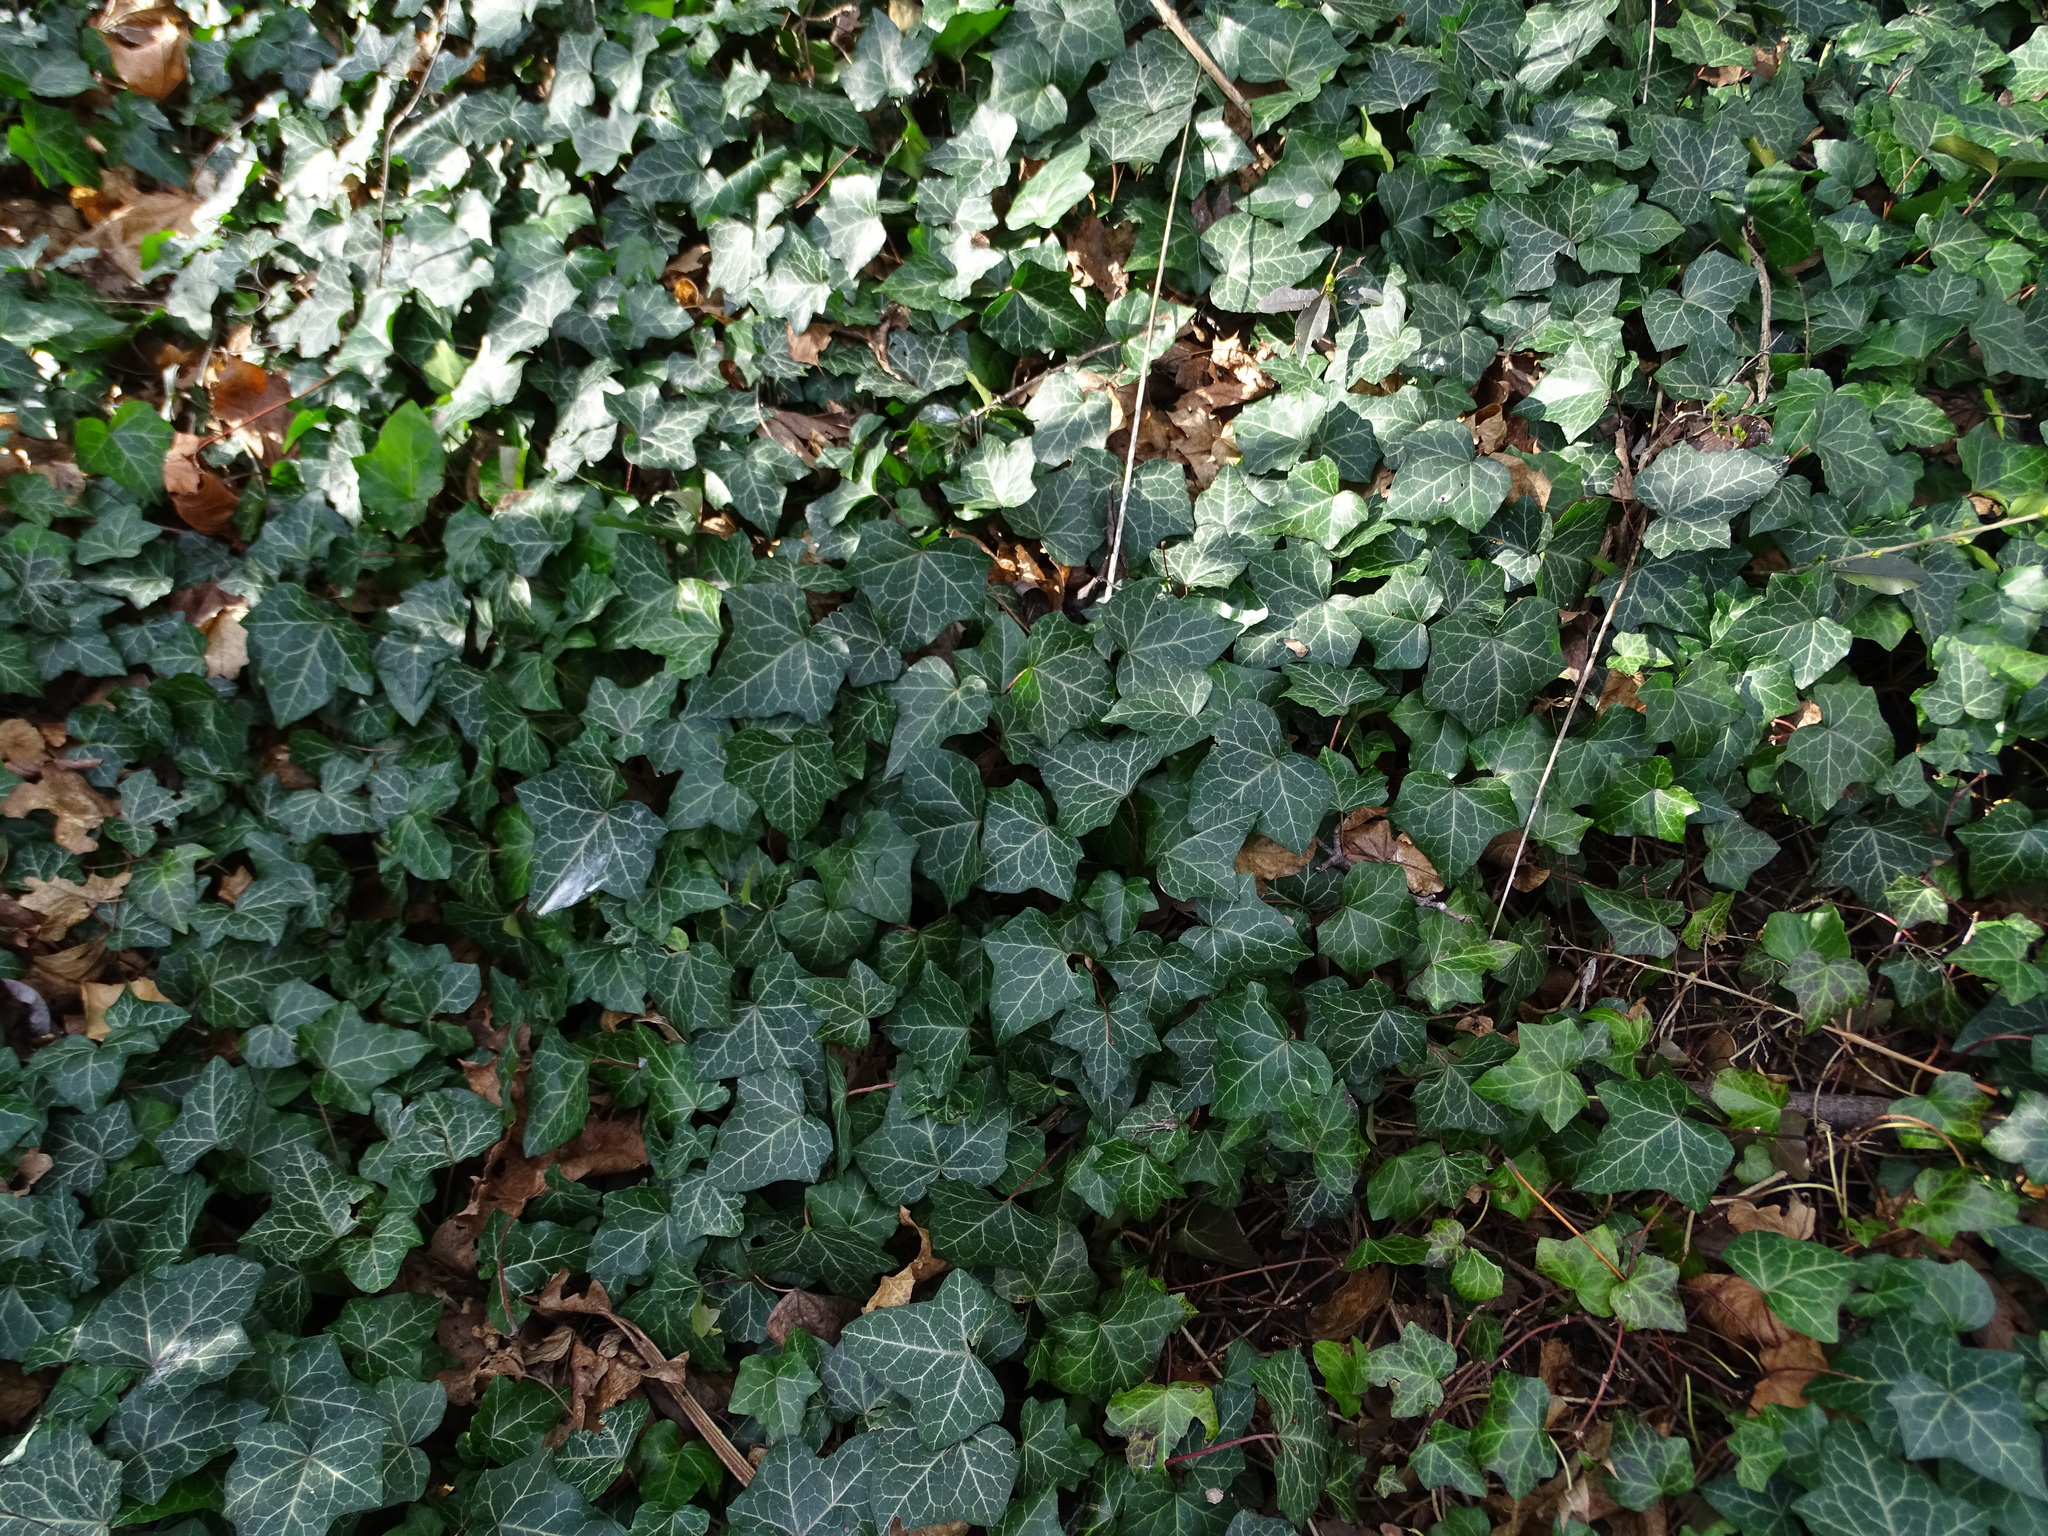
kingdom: Plantae
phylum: Tracheophyta
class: Magnoliopsida
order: Apiales
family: Araliaceae
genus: Hedera
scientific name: Hedera helix
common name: Ivy
